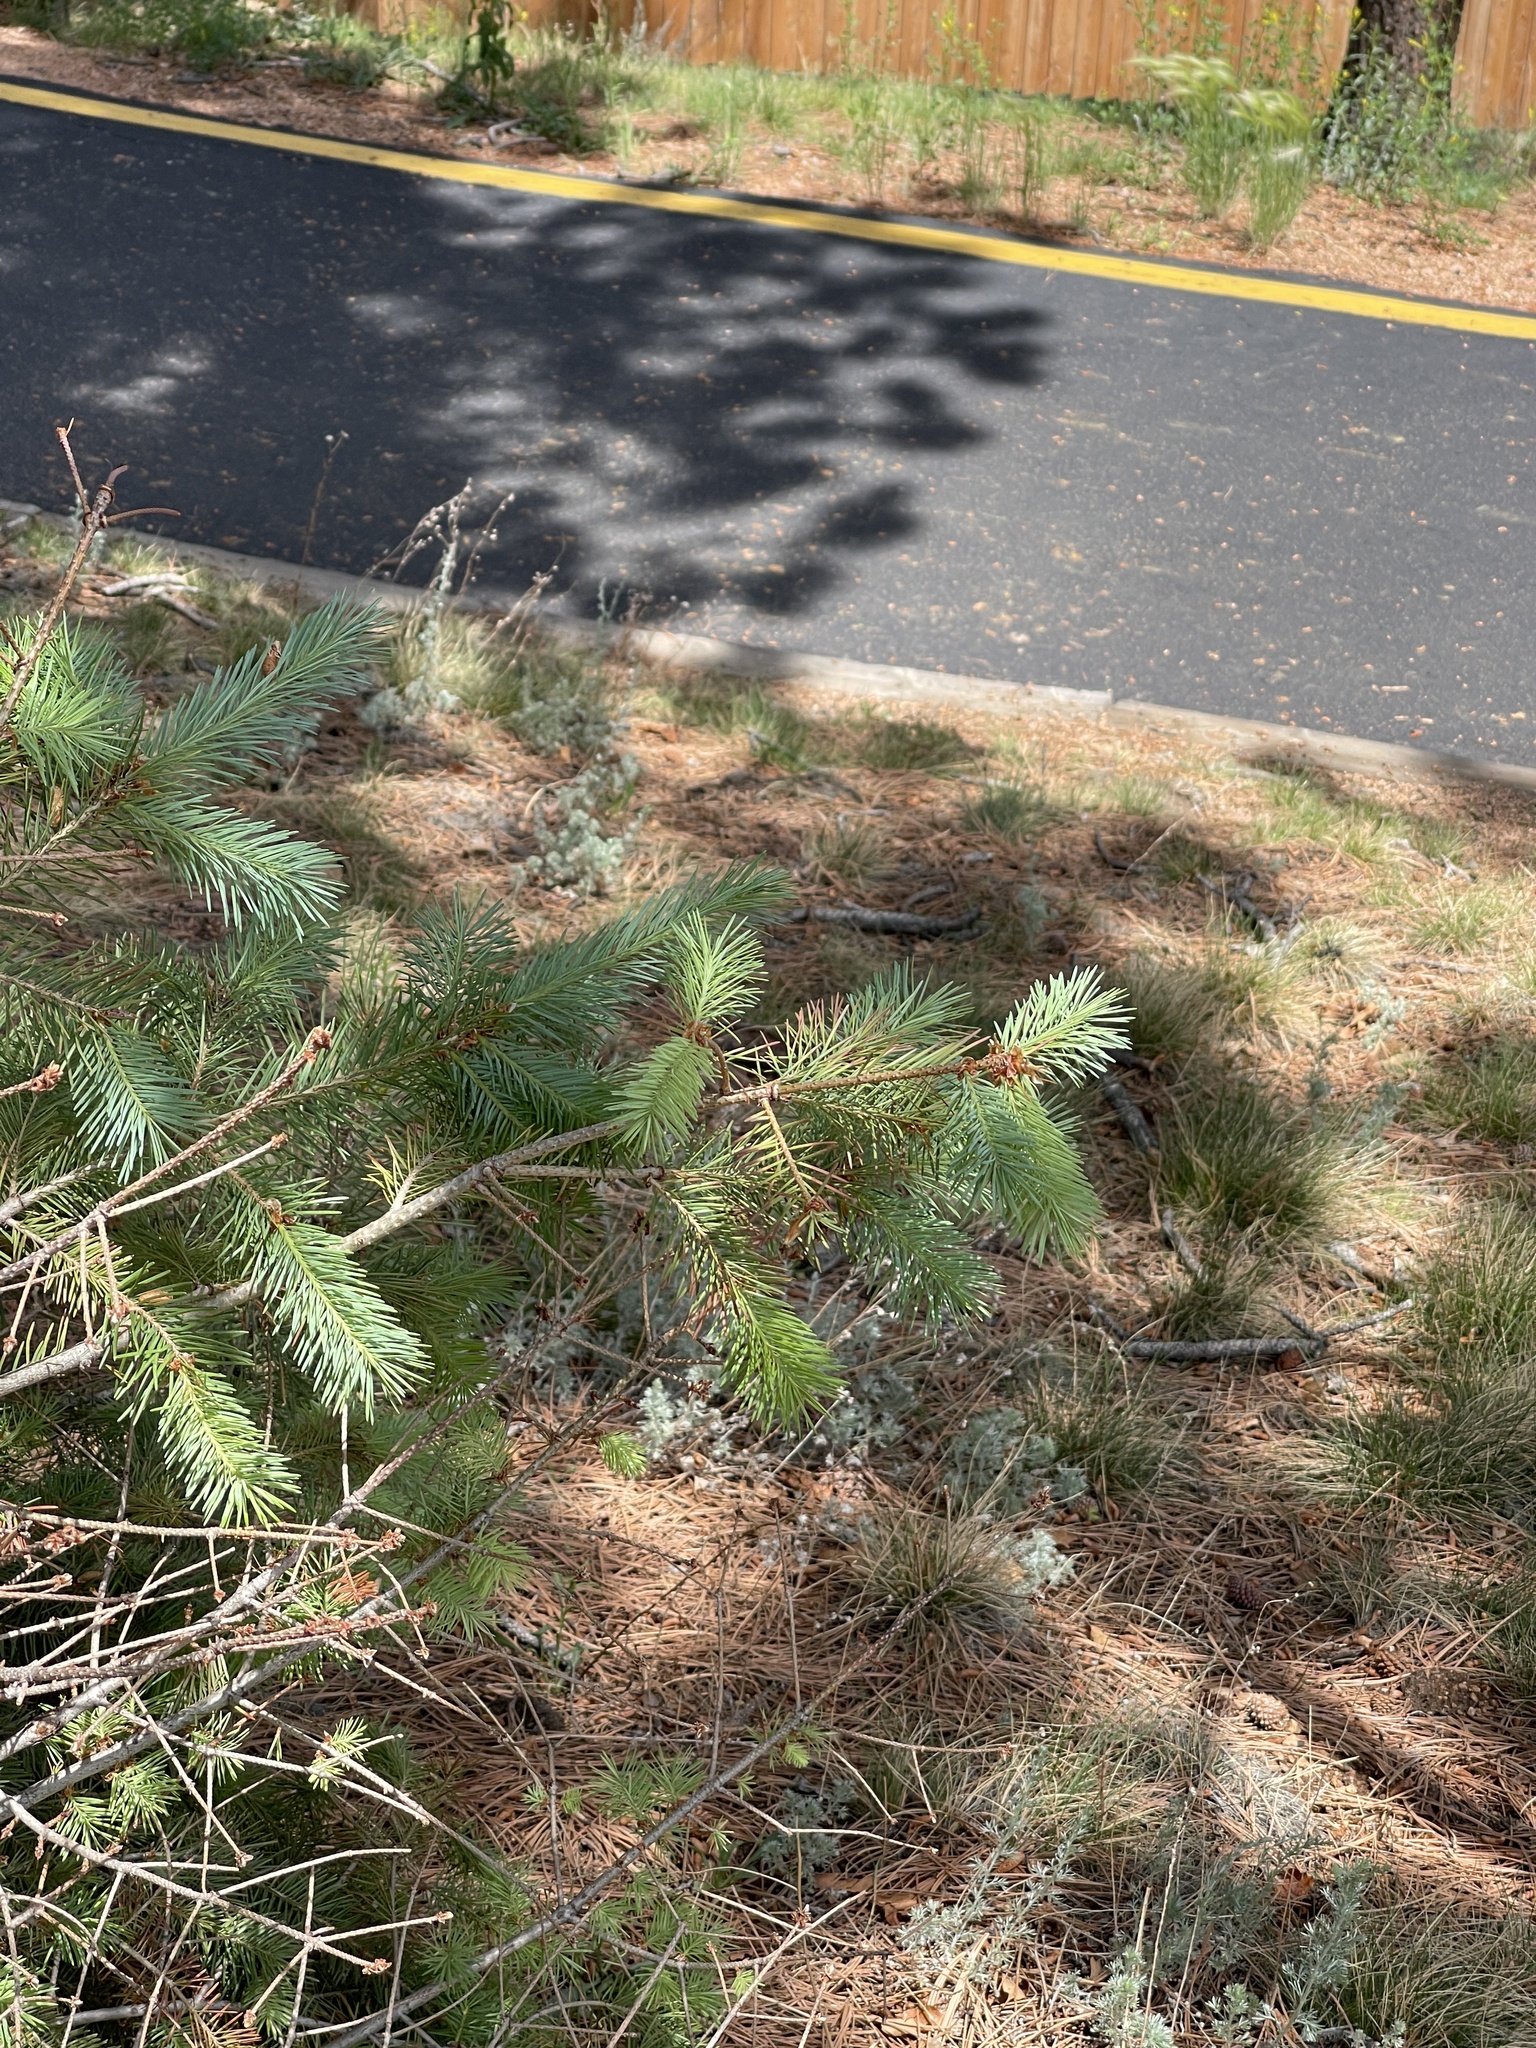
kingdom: Plantae
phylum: Tracheophyta
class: Pinopsida
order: Pinales
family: Pinaceae
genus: Picea
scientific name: Picea engelmannii
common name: Engelmann spruce
